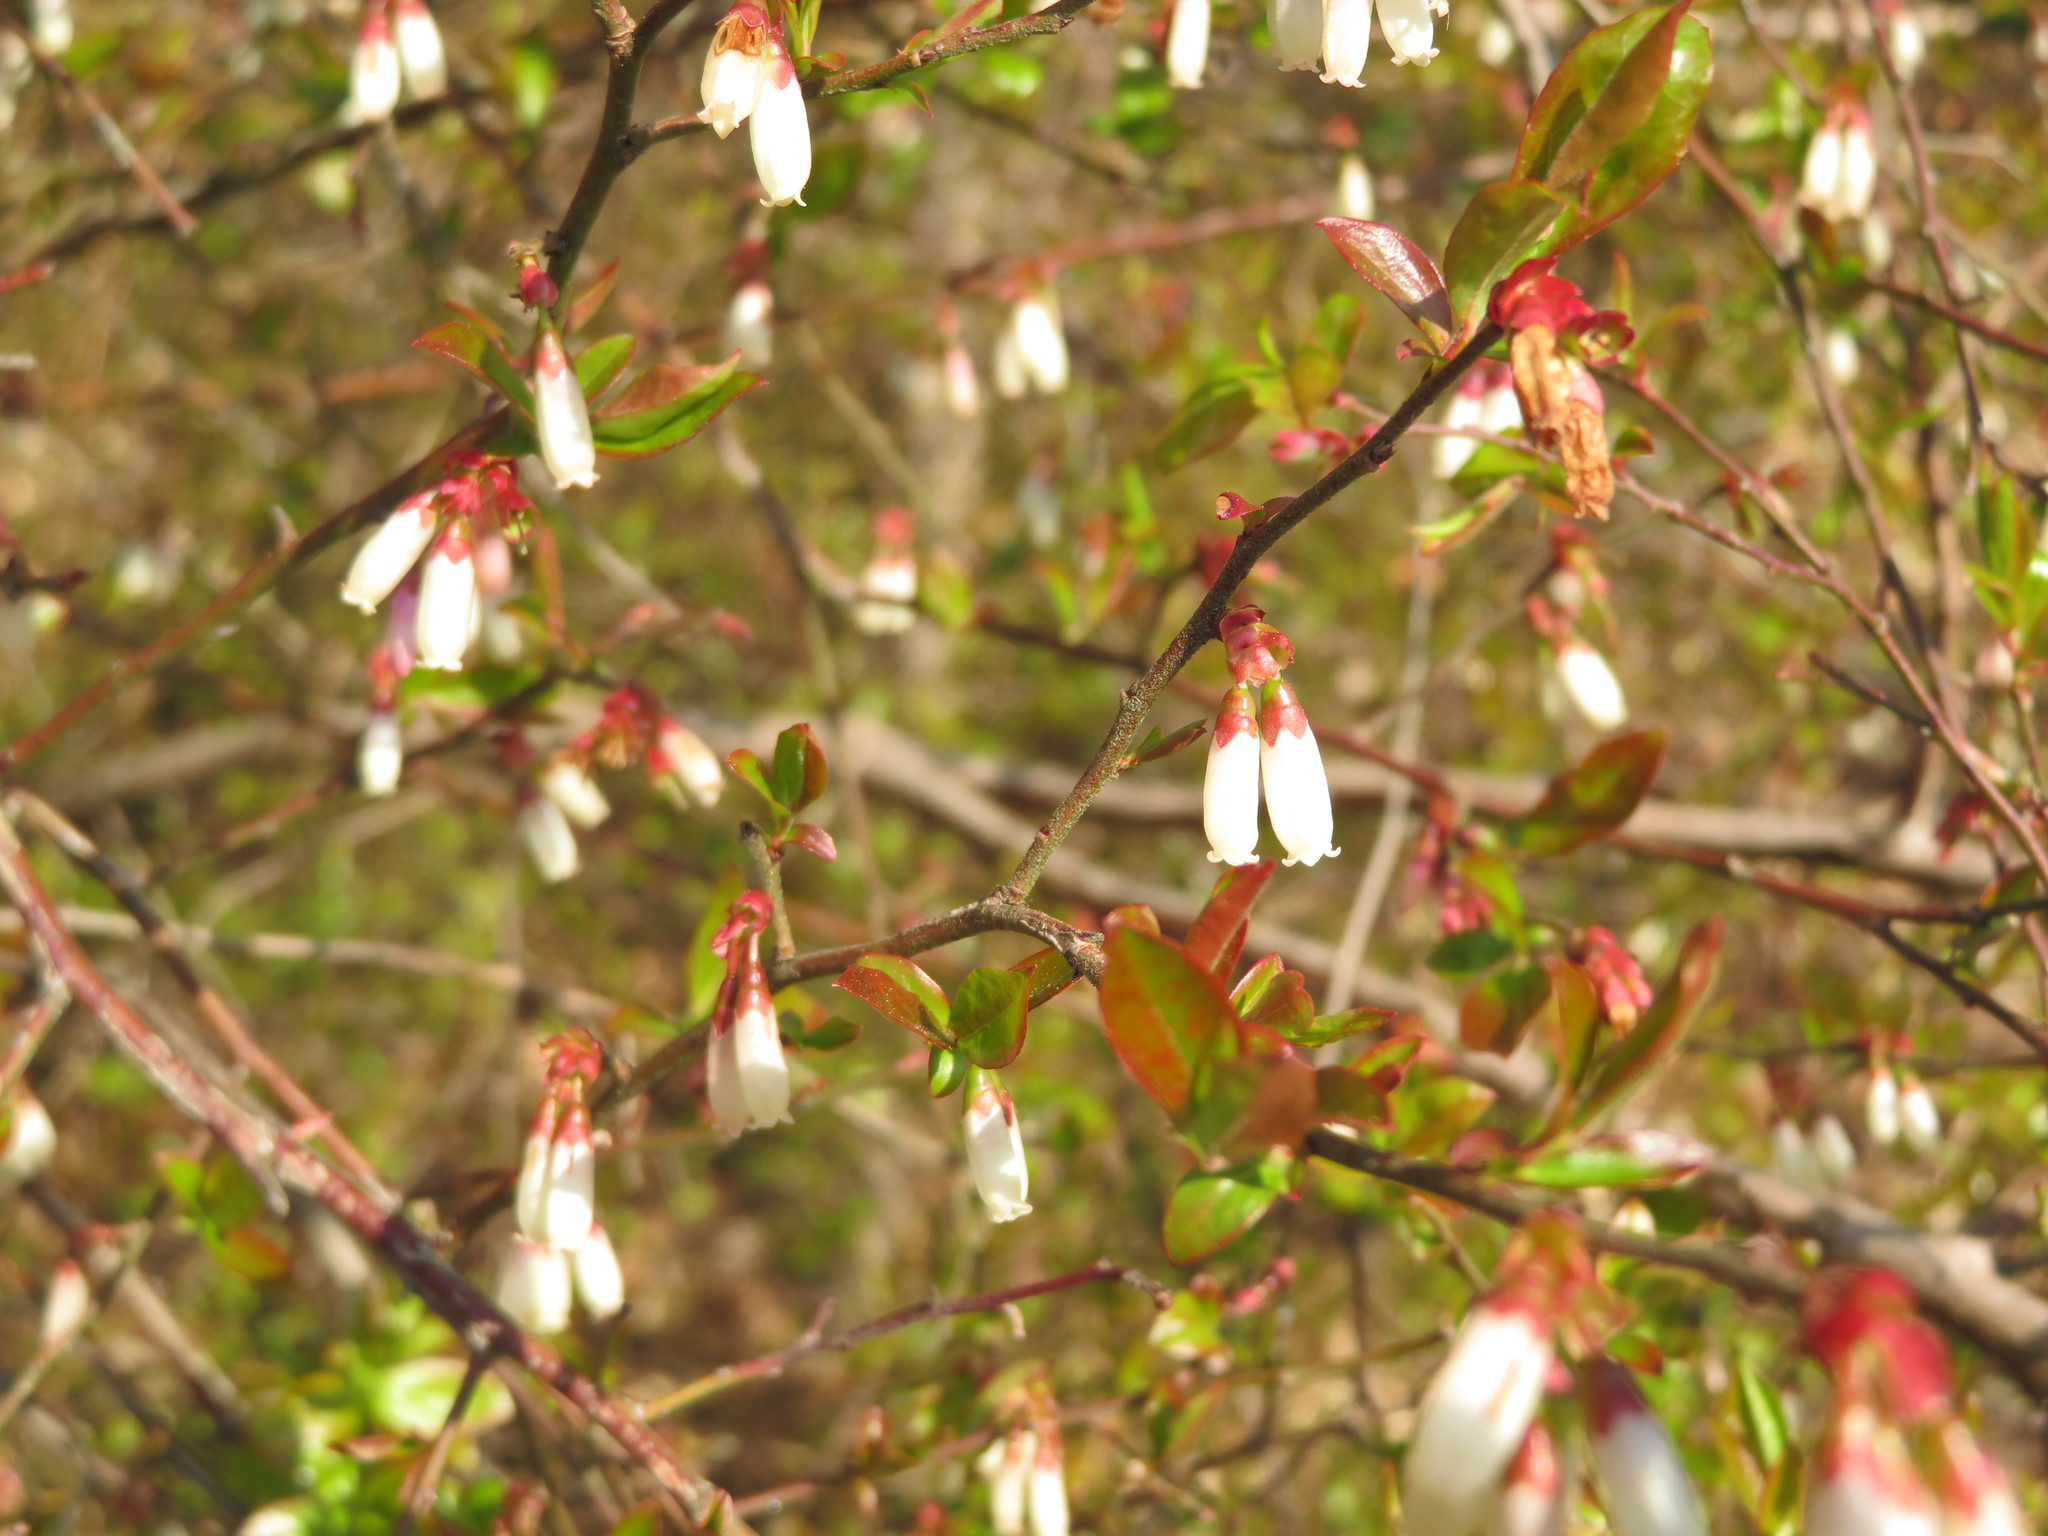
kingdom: Plantae
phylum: Tracheophyta
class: Magnoliopsida
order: Ericales
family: Ericaceae
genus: Vaccinium
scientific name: Vaccinium corymbosum
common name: Blueberry
